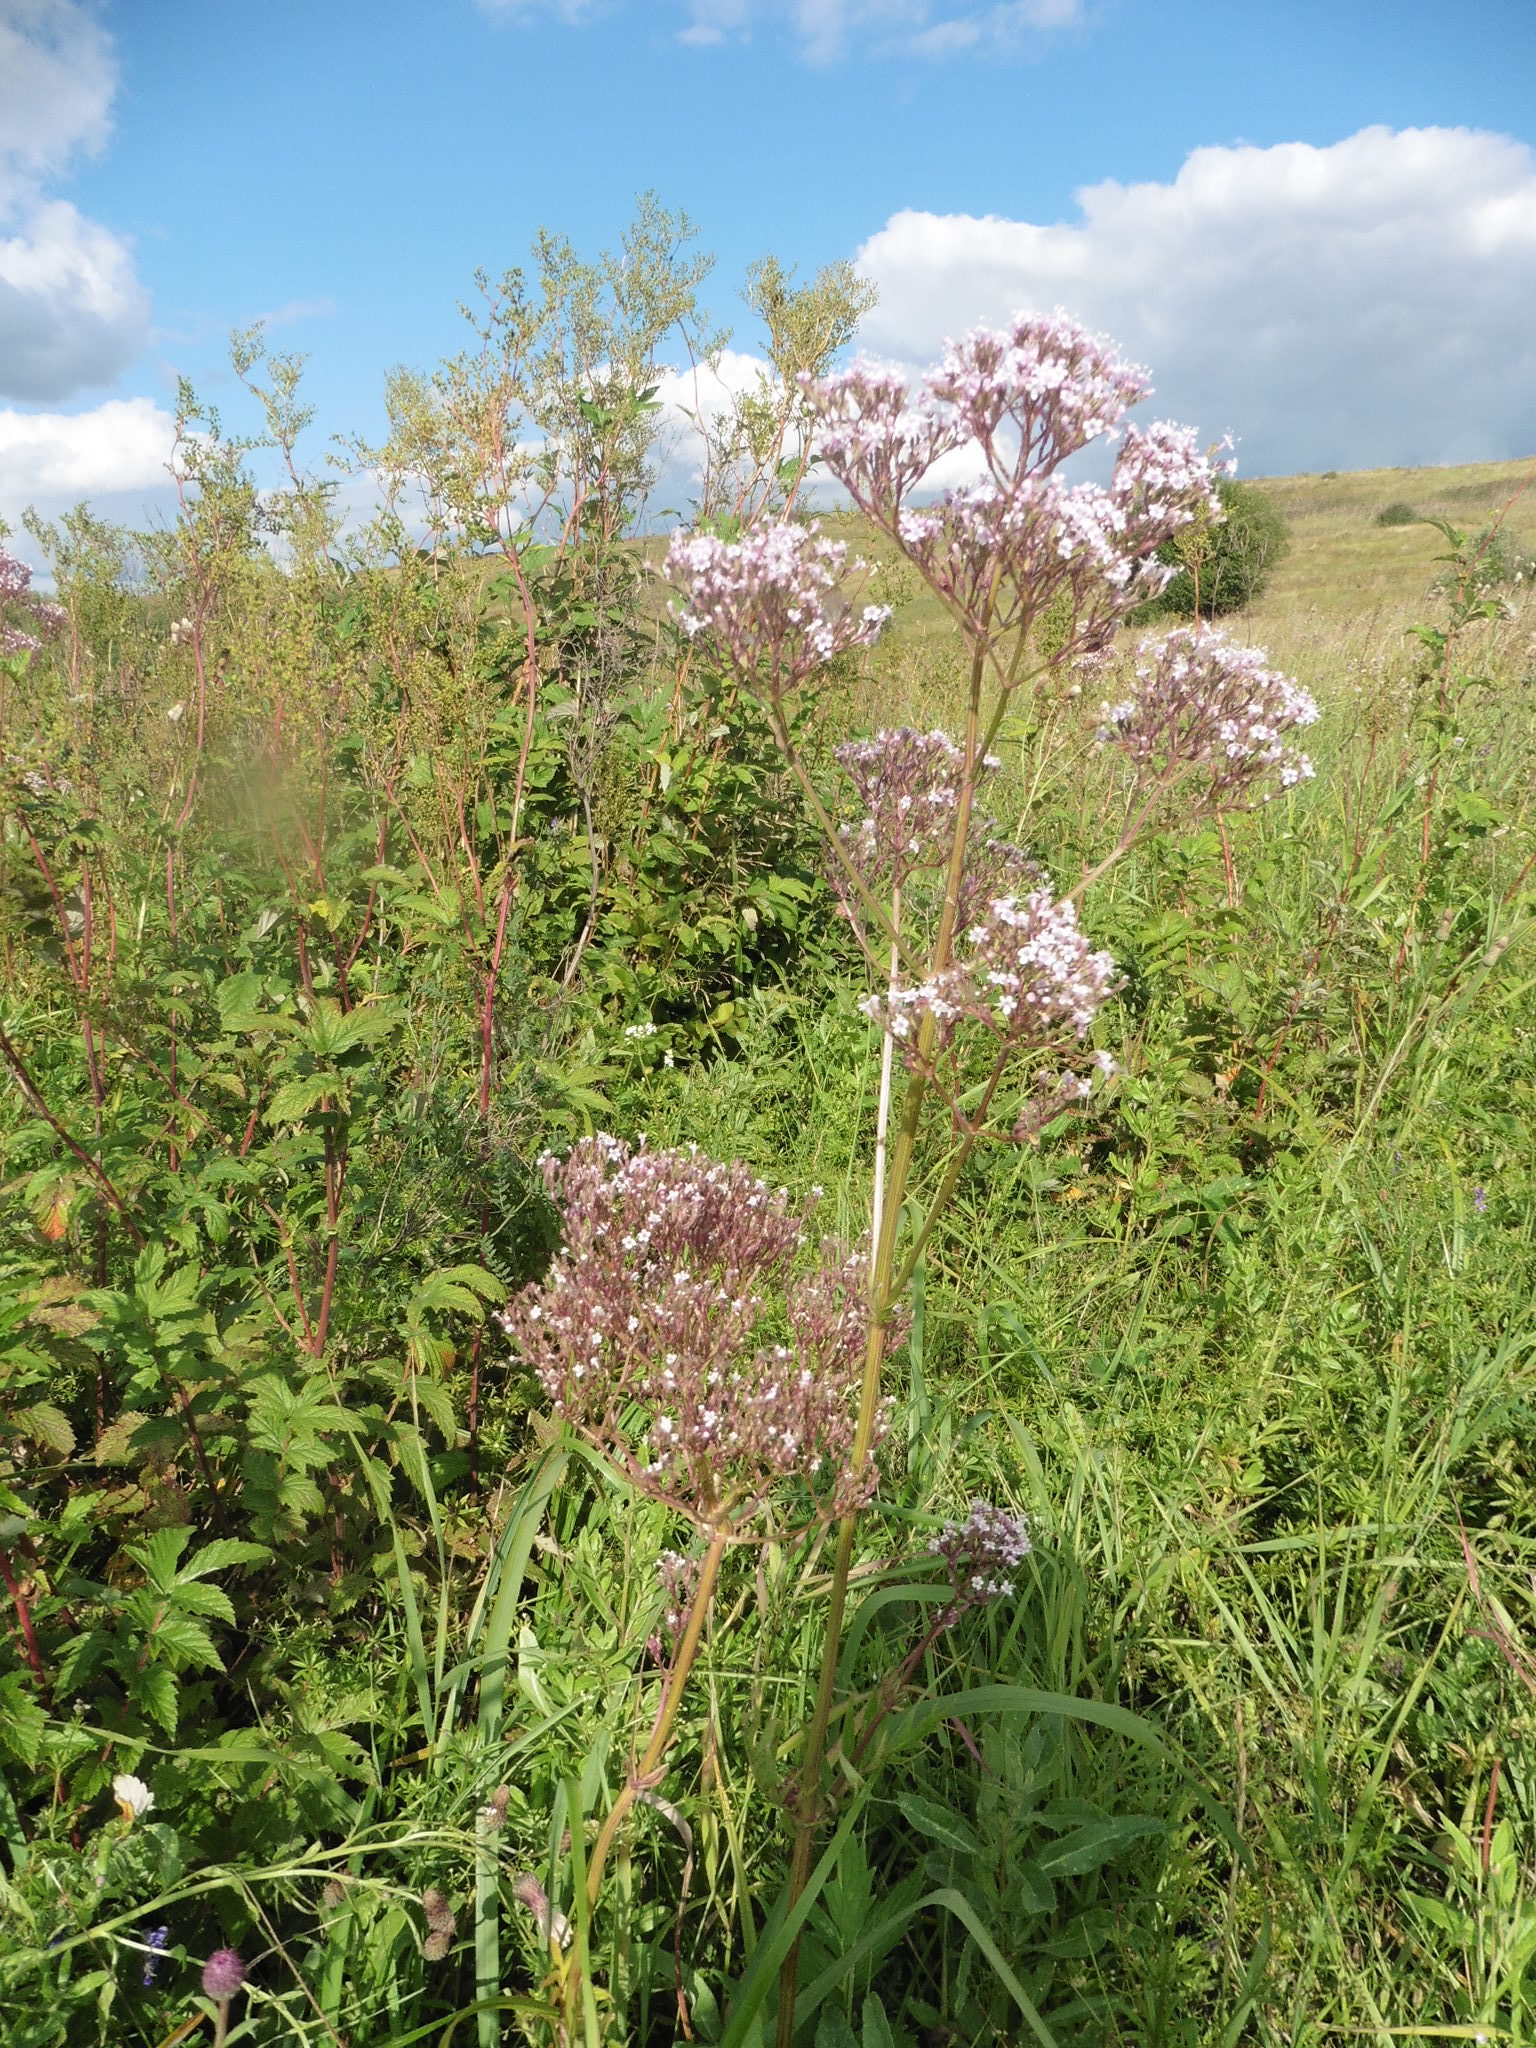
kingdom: Plantae
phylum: Tracheophyta
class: Magnoliopsida
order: Dipsacales
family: Caprifoliaceae
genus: Valeriana
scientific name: Valeriana officinalis
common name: Common valerian
